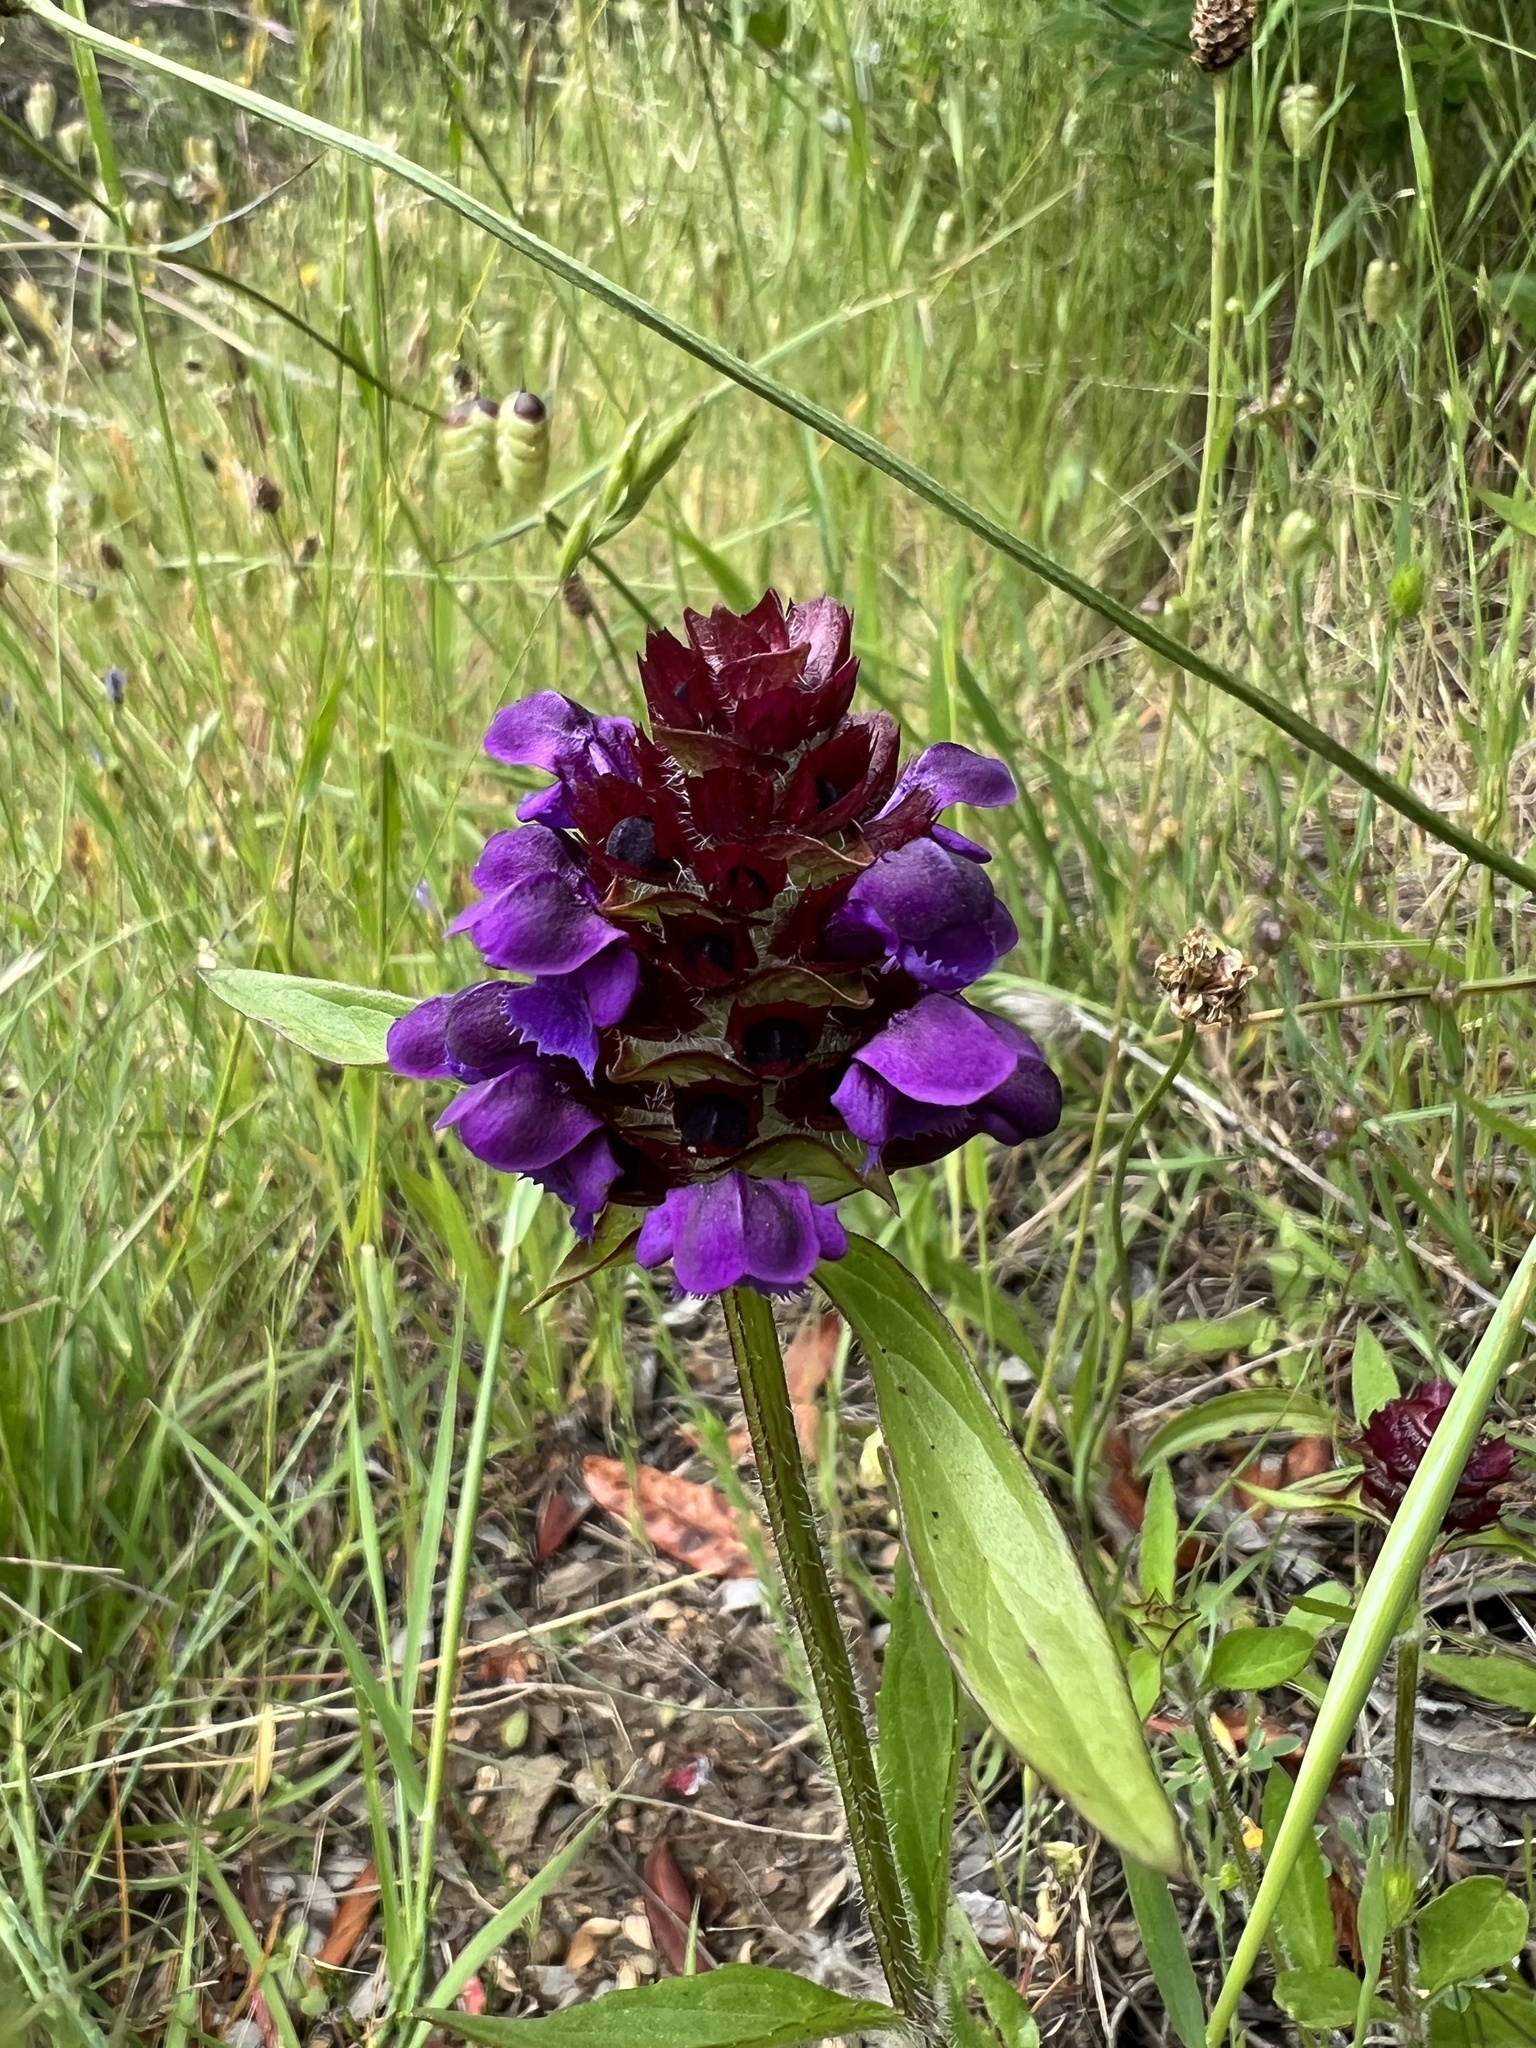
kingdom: Plantae
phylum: Tracheophyta
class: Magnoliopsida
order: Lamiales
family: Lamiaceae
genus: Prunella
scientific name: Prunella vulgaris
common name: Heal-all
